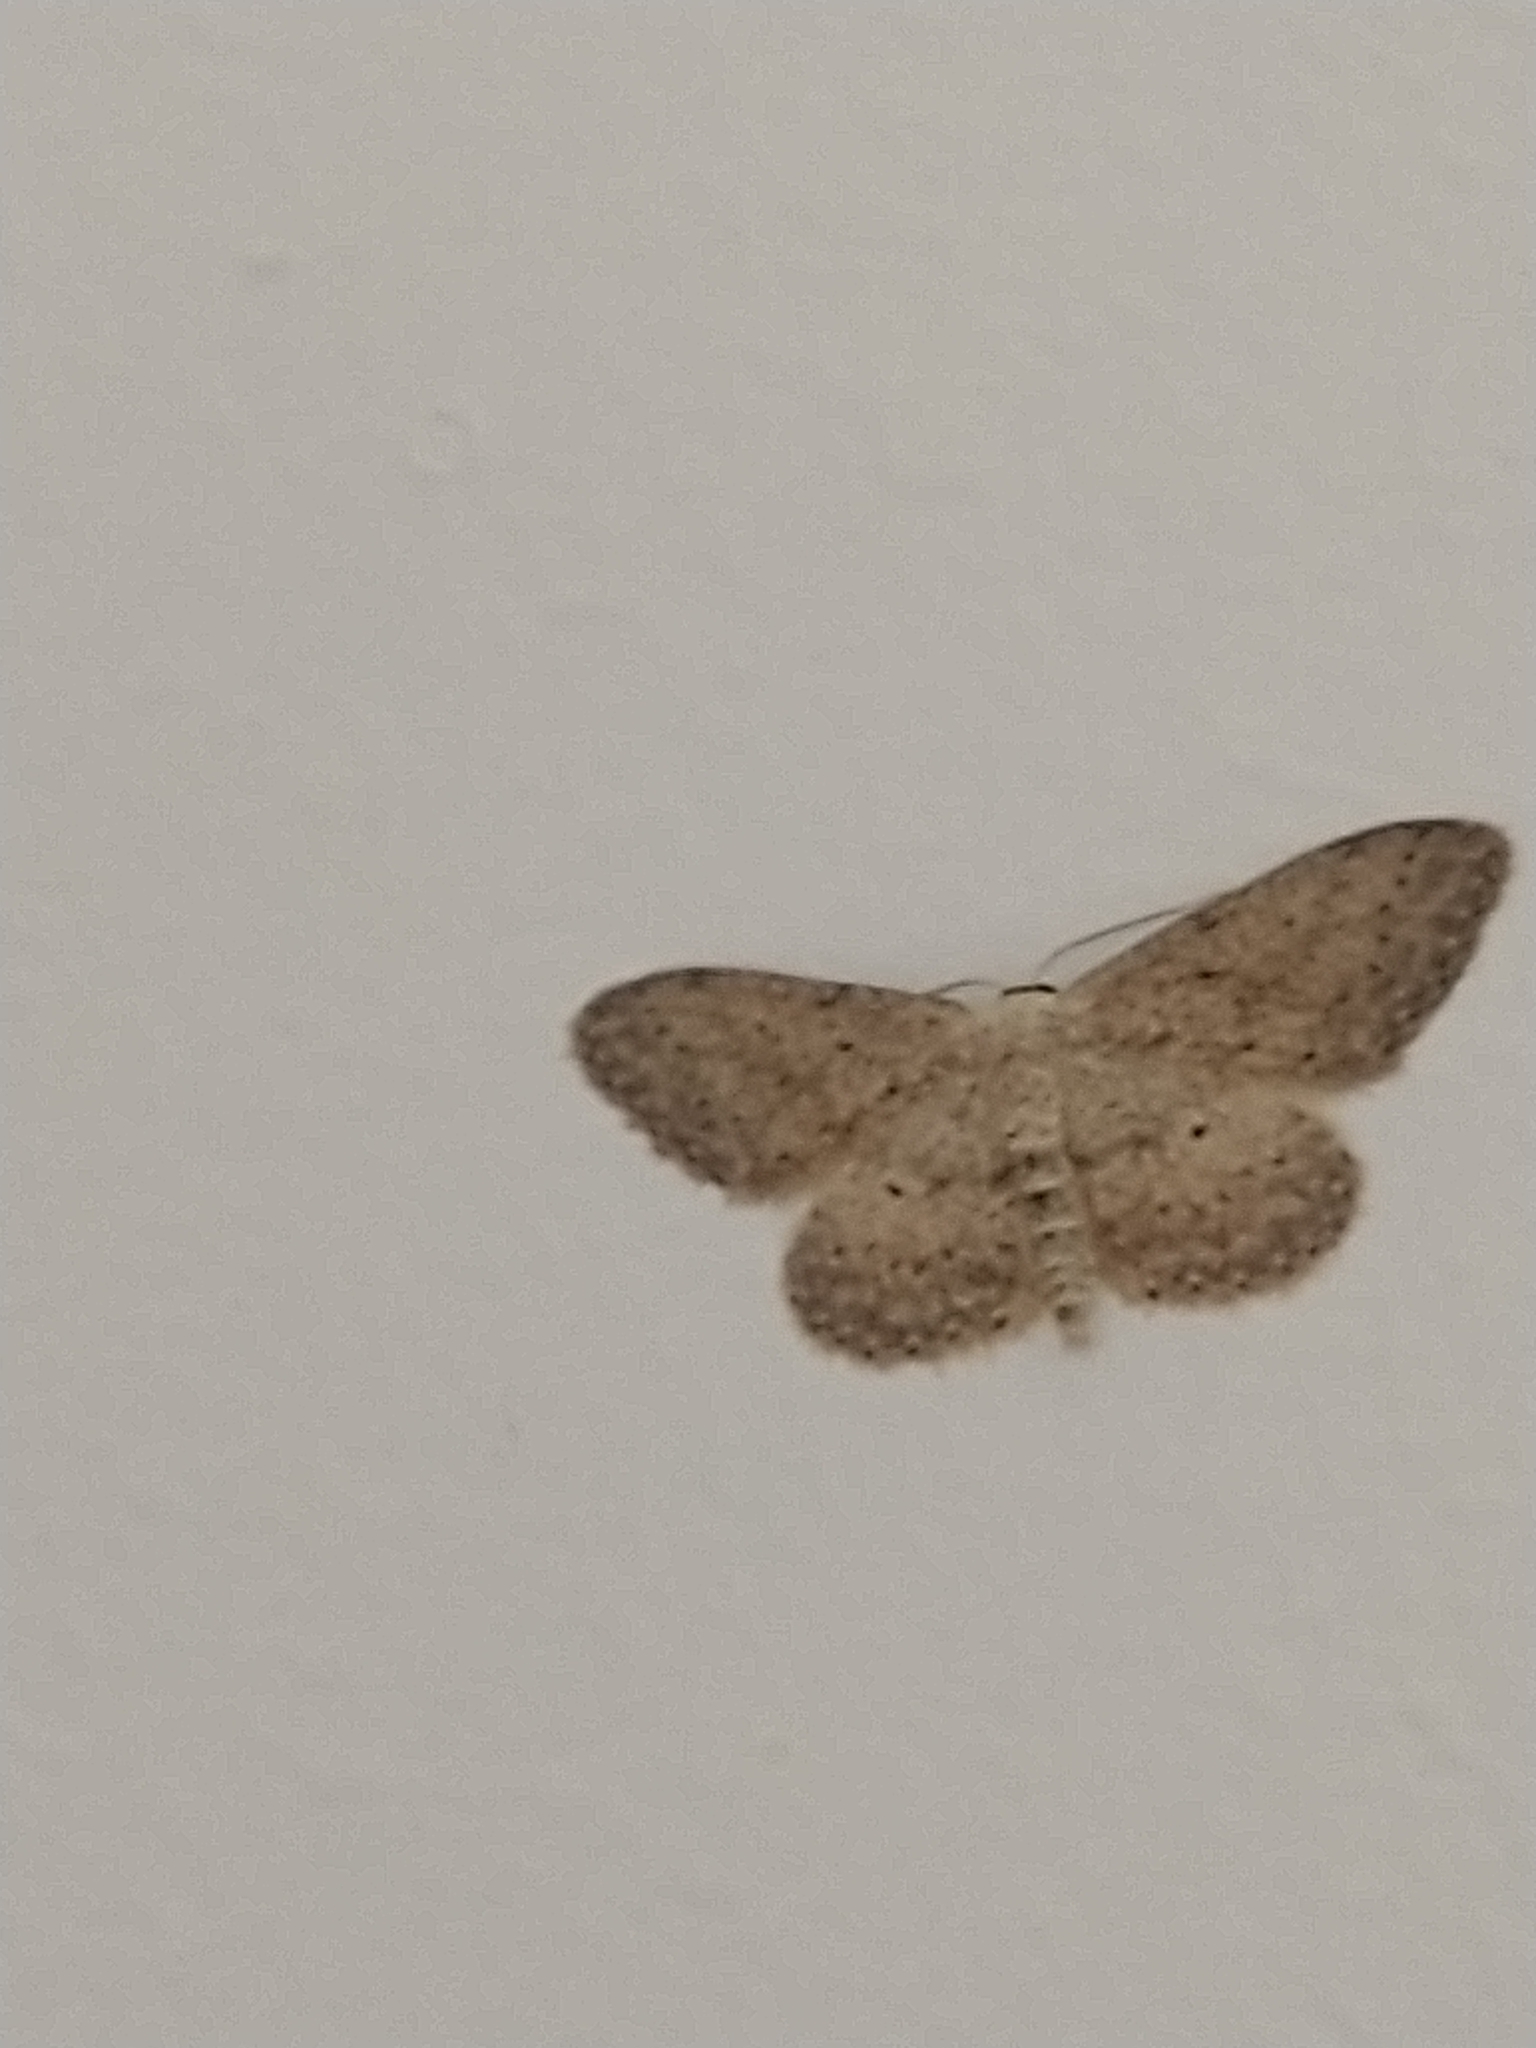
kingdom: Animalia
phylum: Arthropoda
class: Insecta
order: Lepidoptera
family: Geometridae
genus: Idaea
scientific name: Idaea seriata
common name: Small dusty wave
